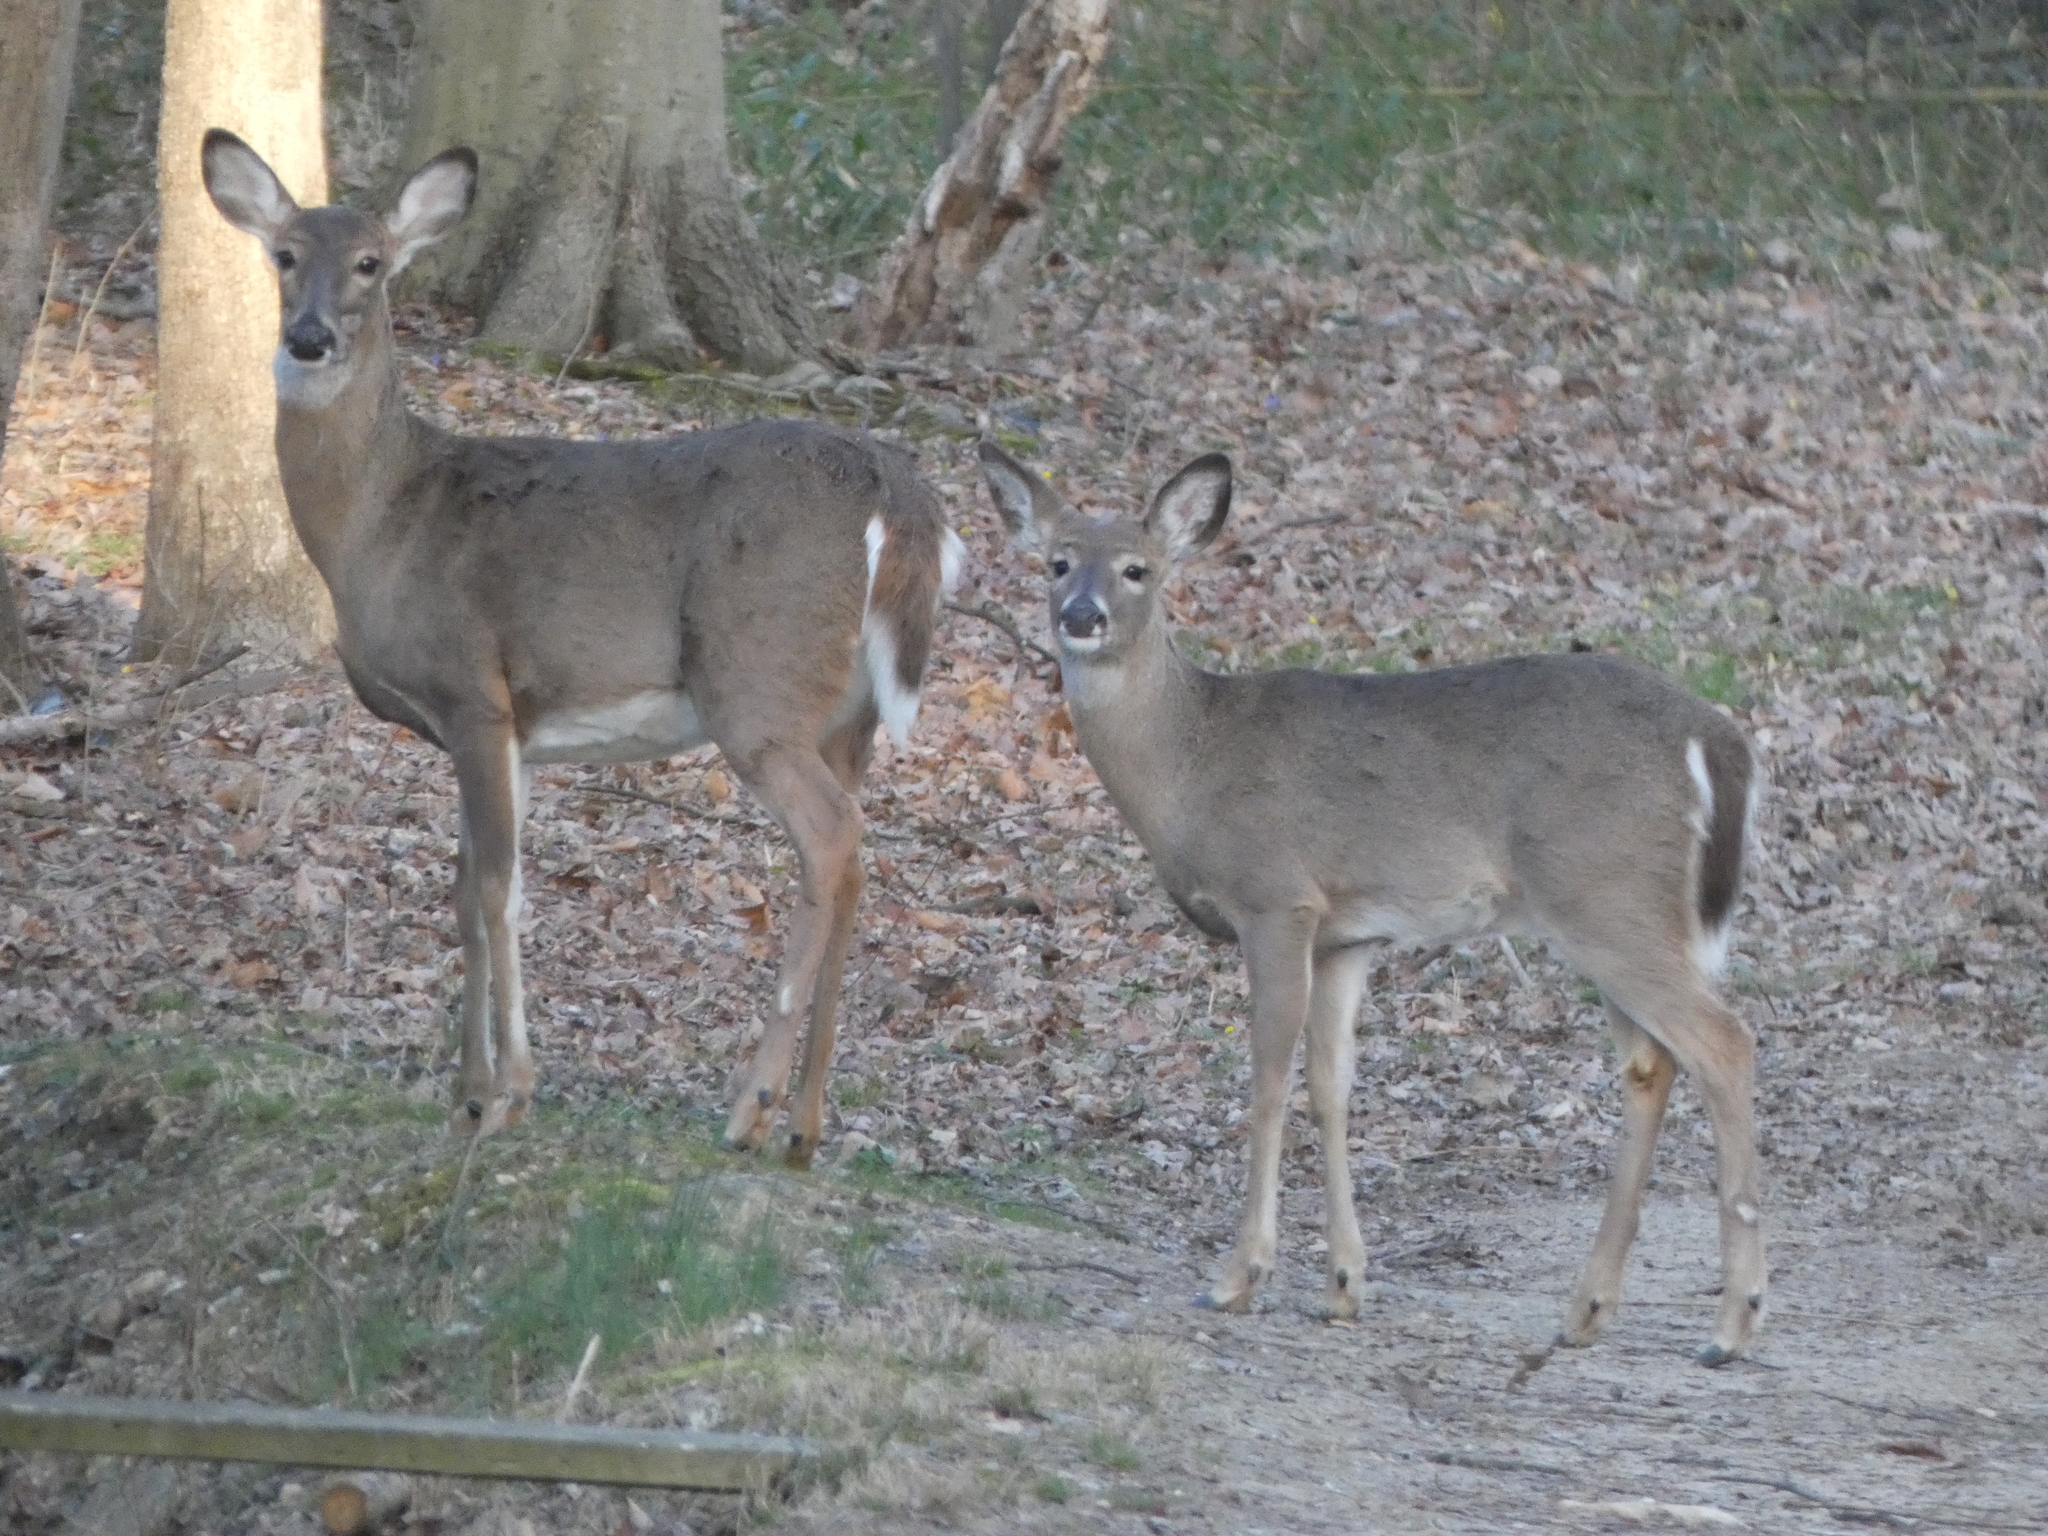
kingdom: Animalia
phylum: Chordata
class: Mammalia
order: Artiodactyla
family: Cervidae
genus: Odocoileus
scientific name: Odocoileus virginianus
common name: White-tailed deer
